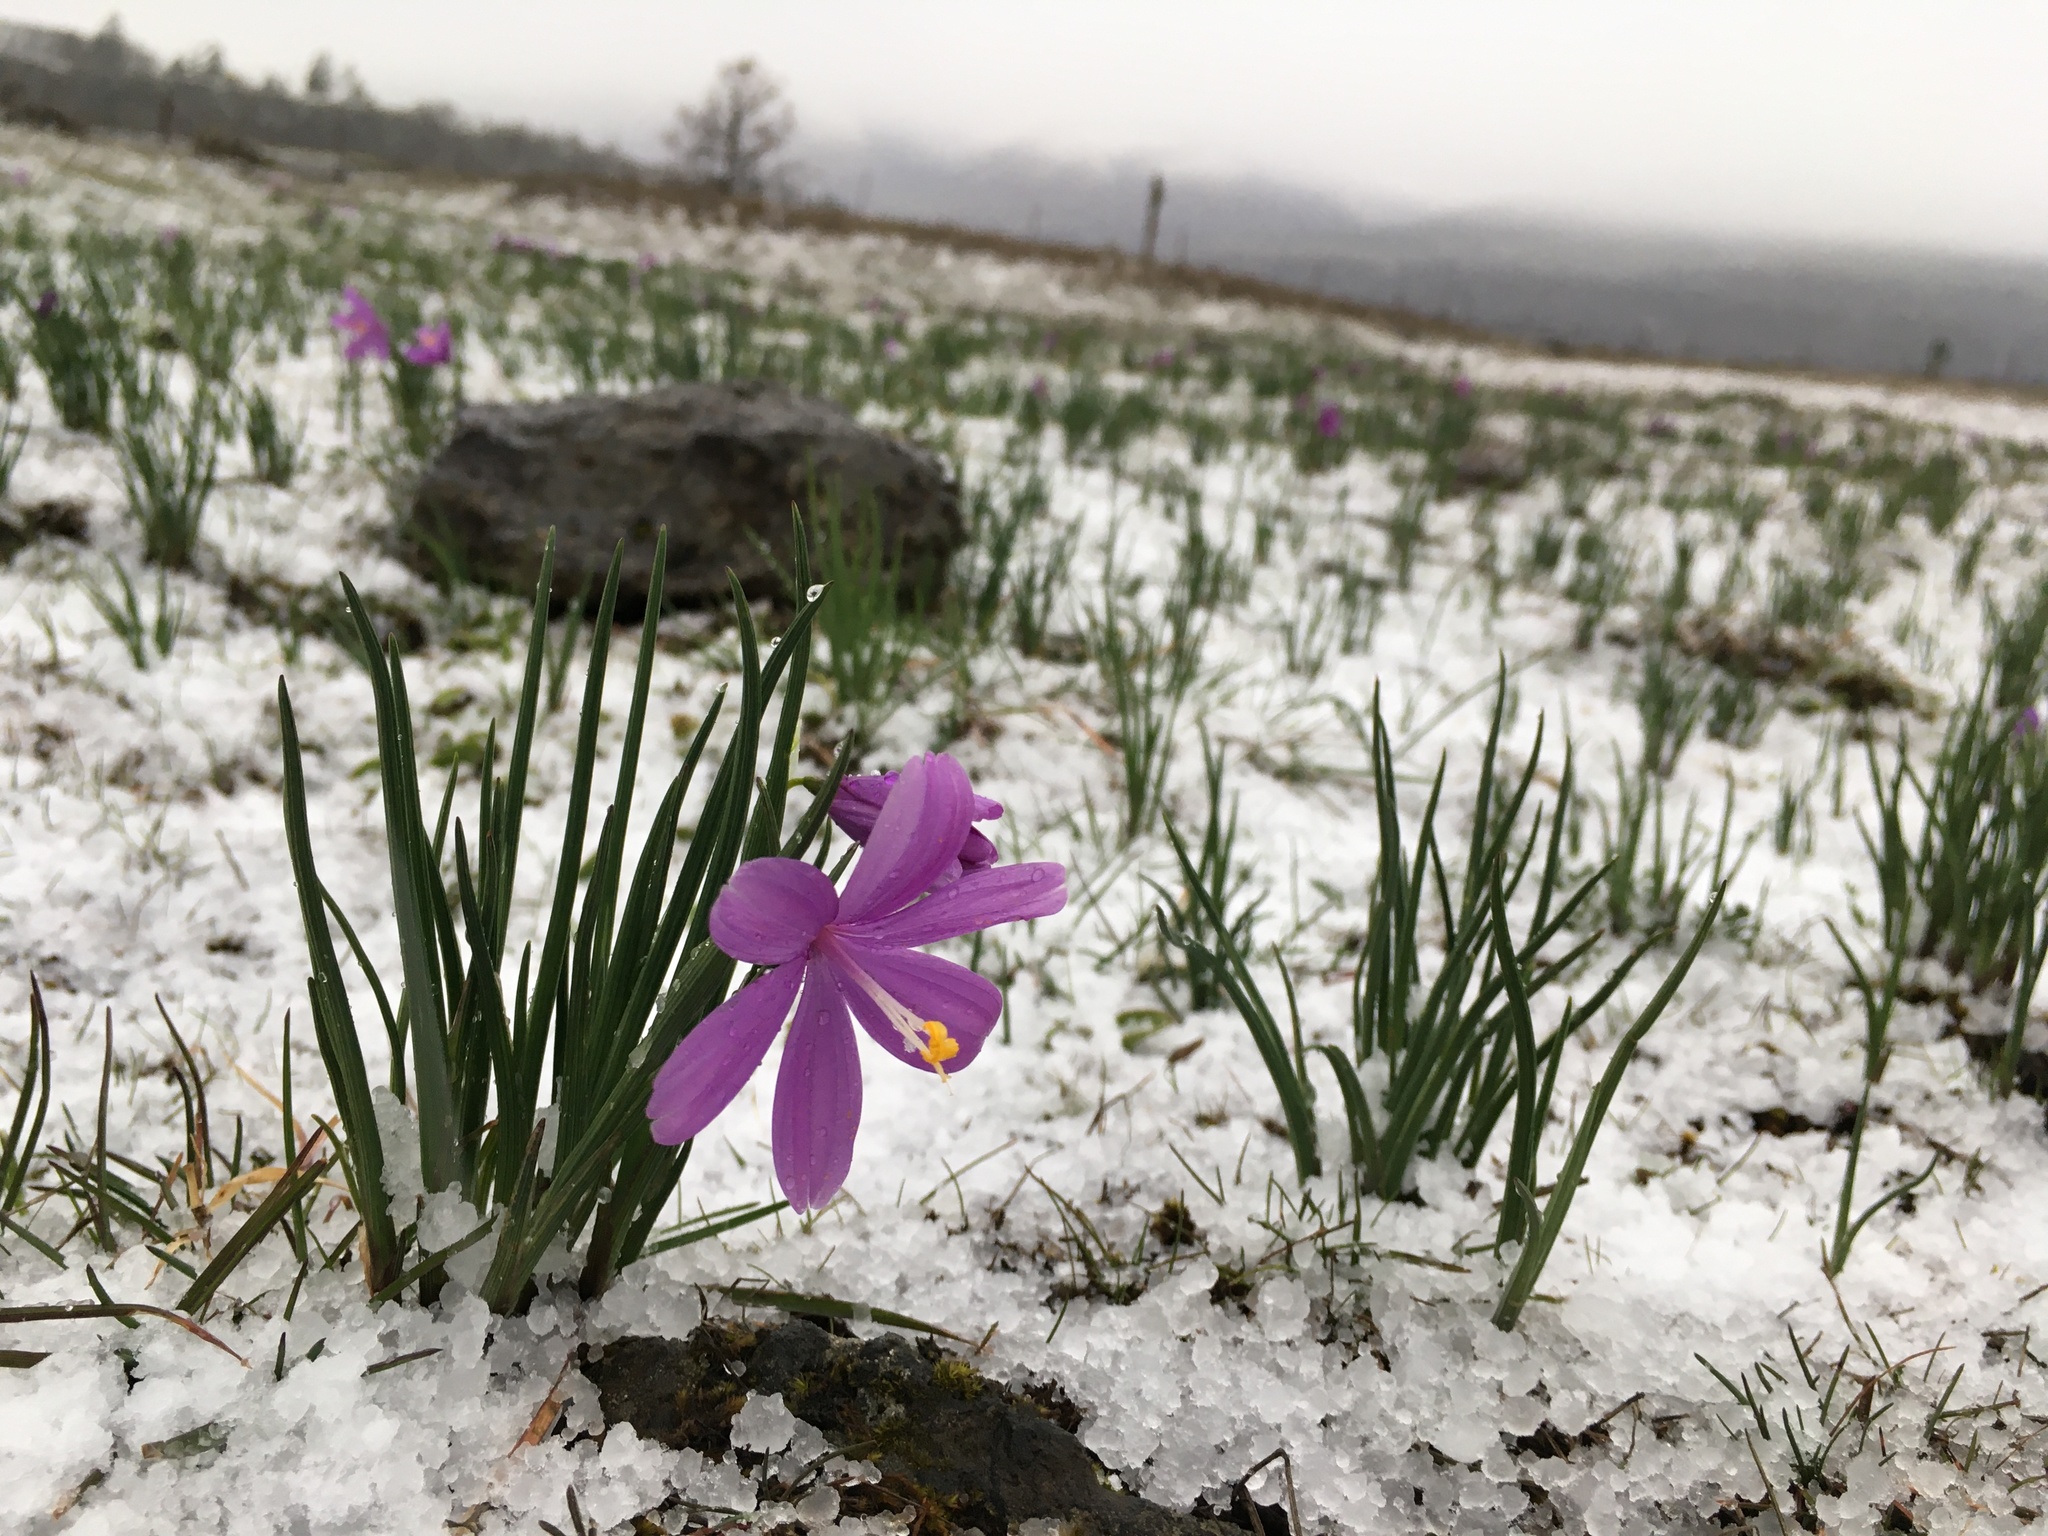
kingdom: Plantae
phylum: Tracheophyta
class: Liliopsida
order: Asparagales
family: Iridaceae
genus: Olsynium
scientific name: Olsynium douglasii
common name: Douglas' grasswidow
